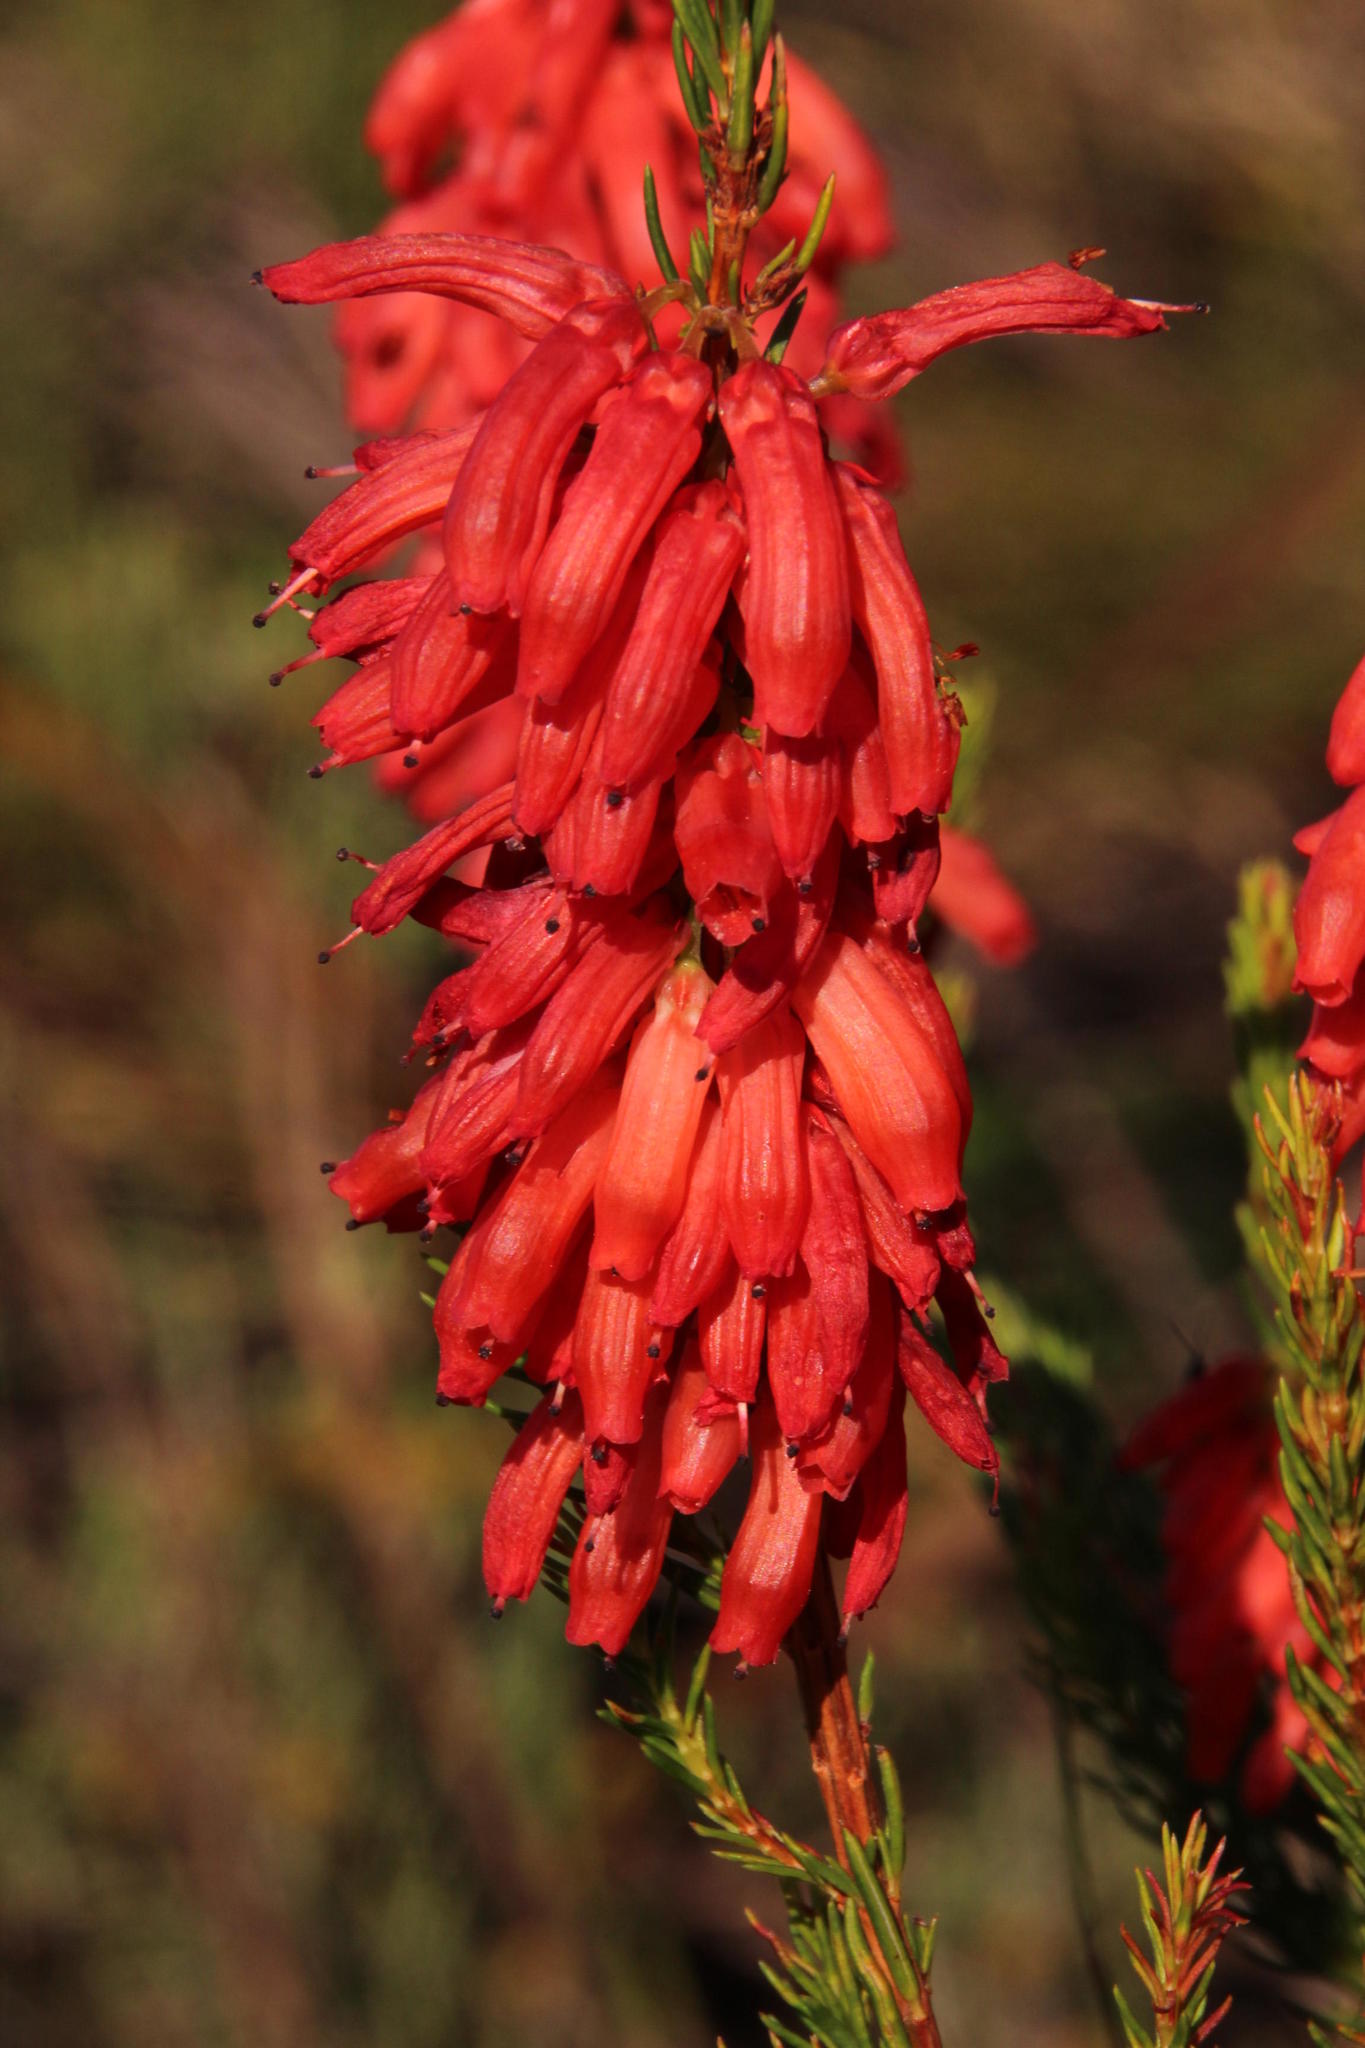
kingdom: Plantae
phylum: Tracheophyta
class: Magnoliopsida
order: Ericales
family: Ericaceae
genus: Erica
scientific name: Erica mammosa
